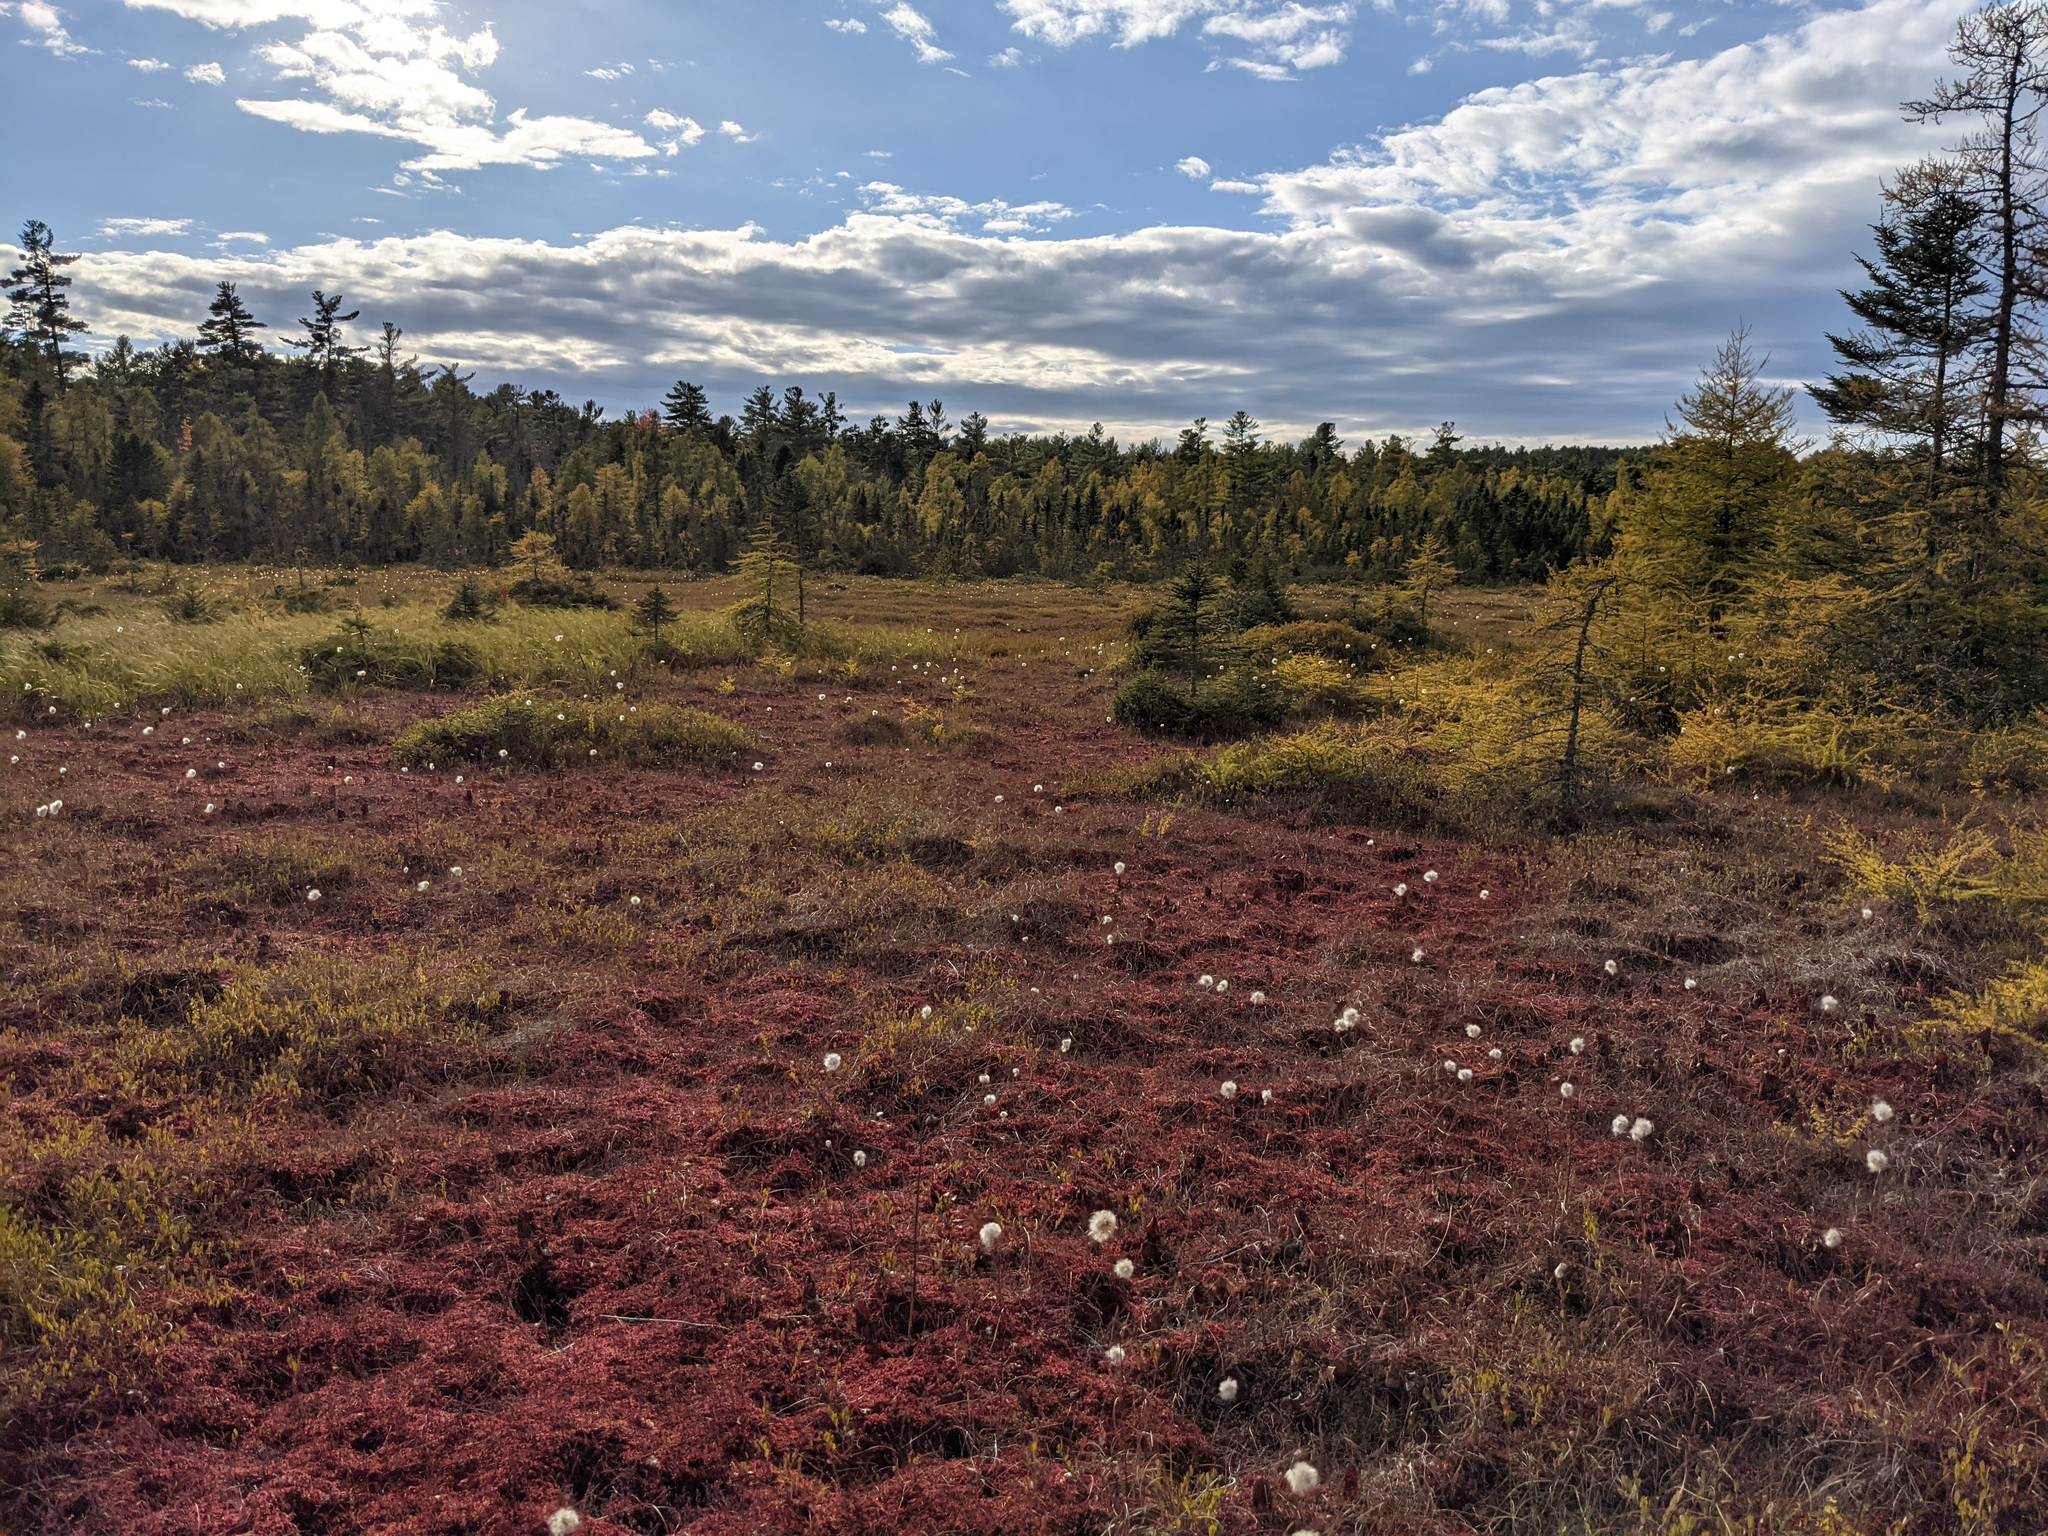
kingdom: Plantae
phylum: Tracheophyta
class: Magnoliopsida
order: Ericales
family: Sarraceniaceae
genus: Sarracenia
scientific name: Sarracenia purpurea
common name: Pitcherplant
